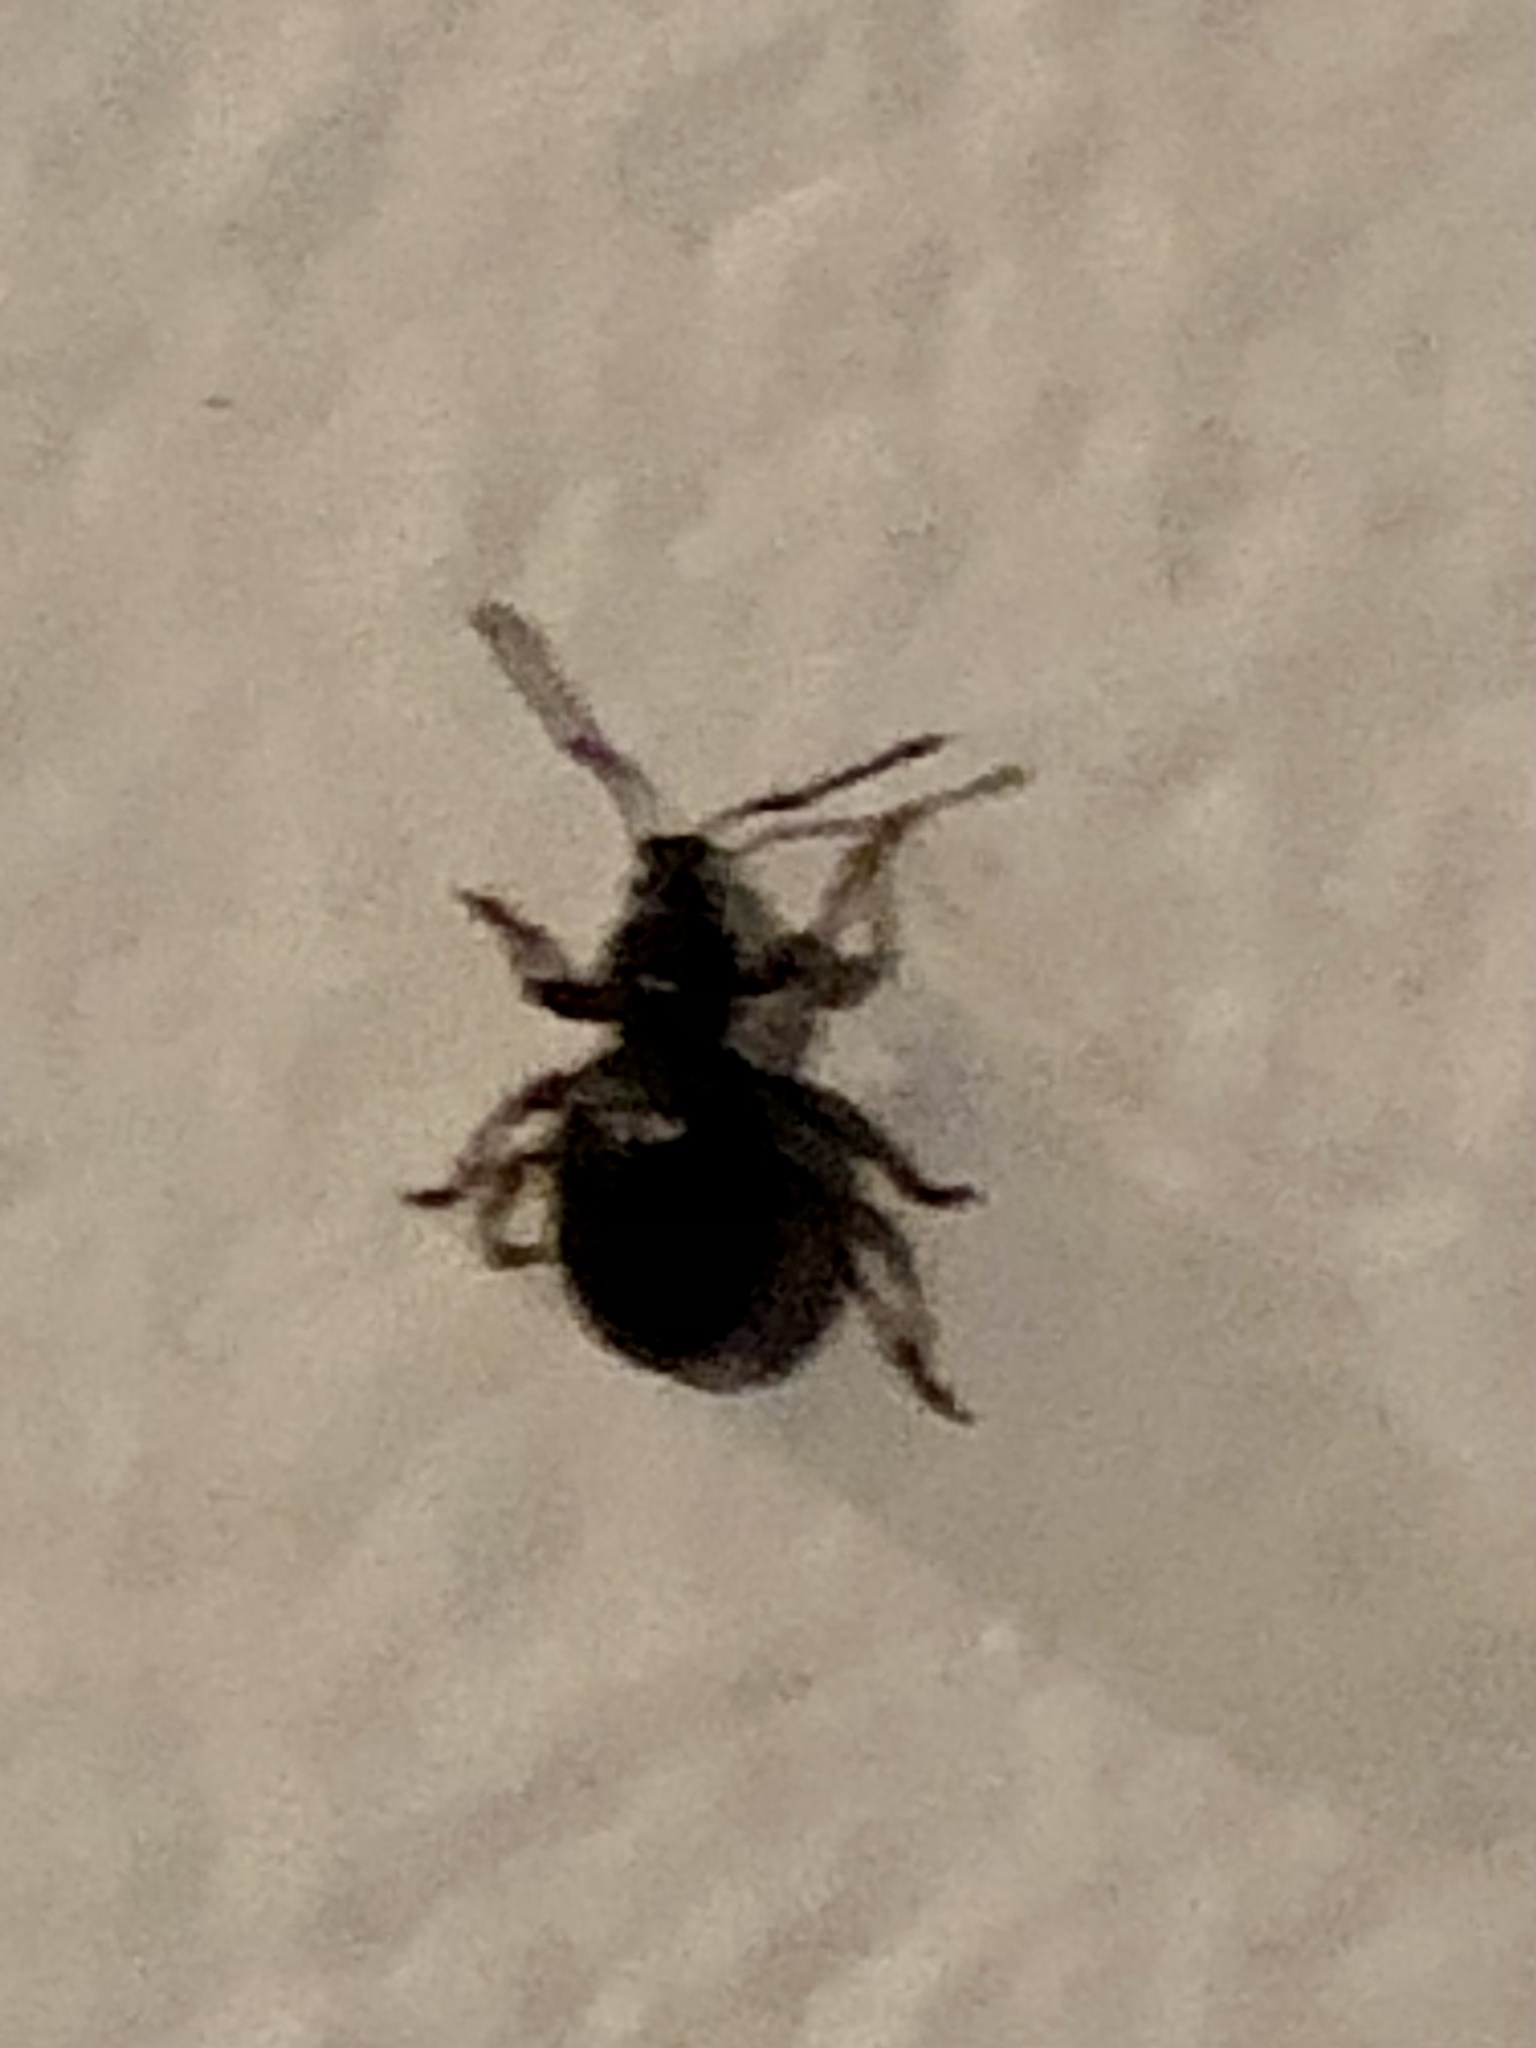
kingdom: Animalia
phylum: Arthropoda
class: Insecta
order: Coleoptera
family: Curculionidae
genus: Otiorhynchus
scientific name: Otiorhynchus ovatus
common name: Strawberry root weevil
